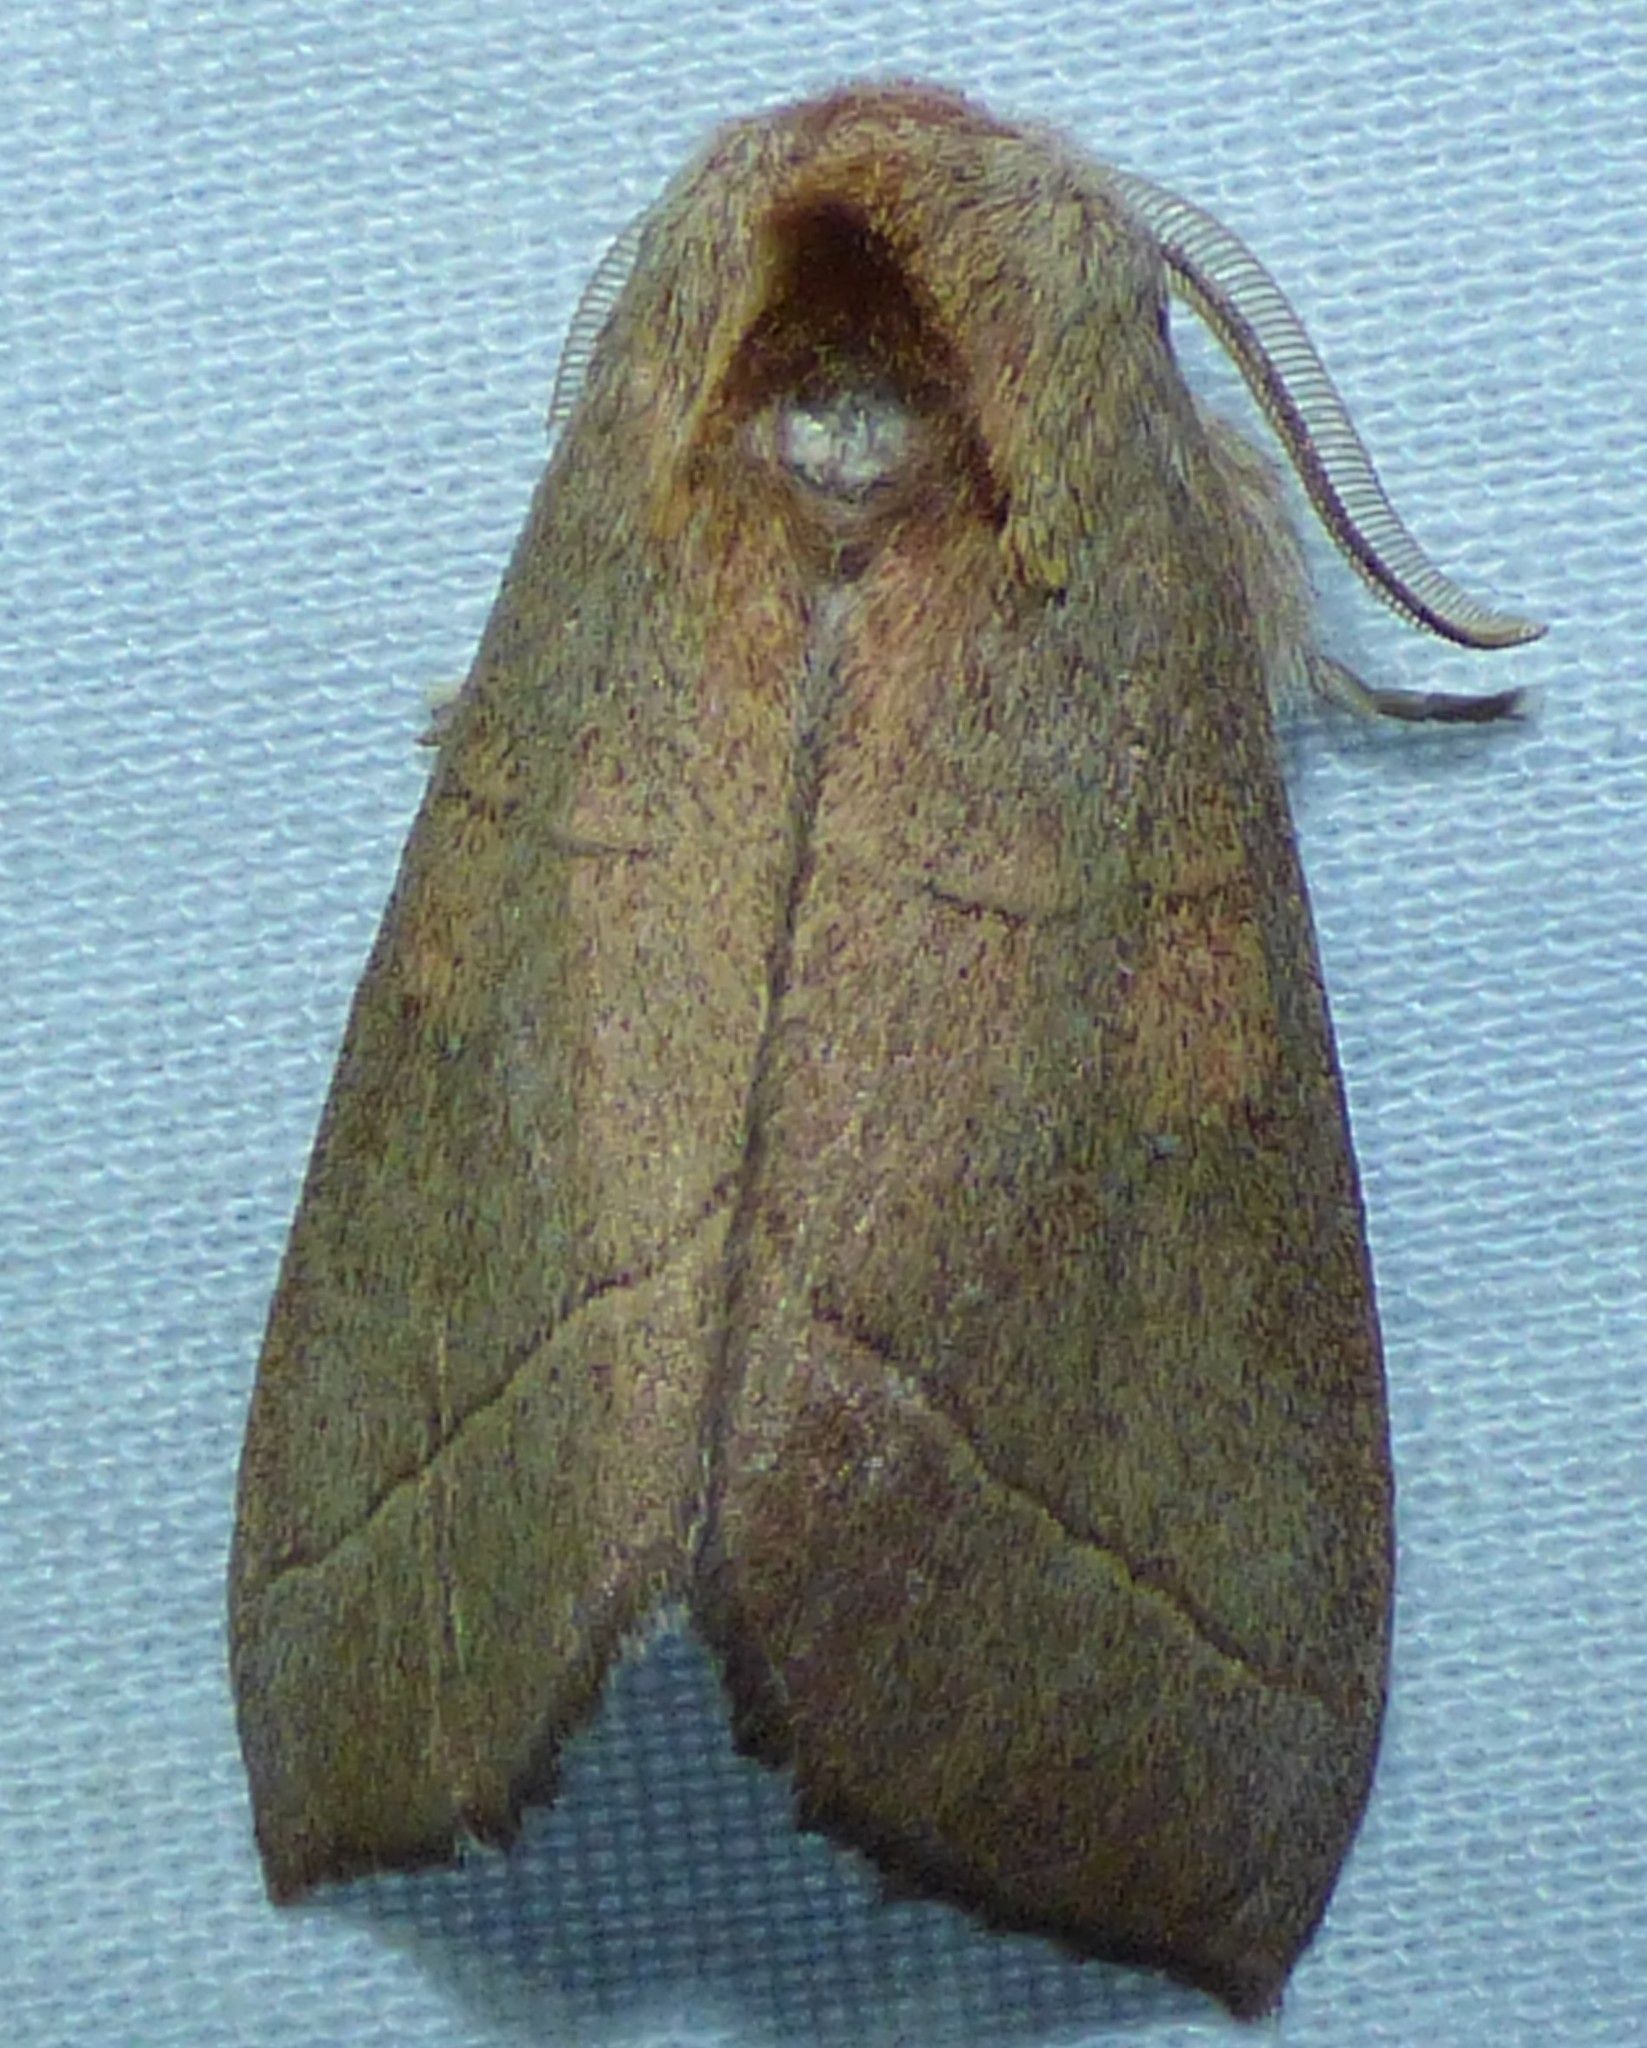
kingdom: Animalia
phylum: Arthropoda
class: Insecta
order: Lepidoptera
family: Notodontidae
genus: Nadata
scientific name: Nadata gibbosa
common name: White-dotted prominent
